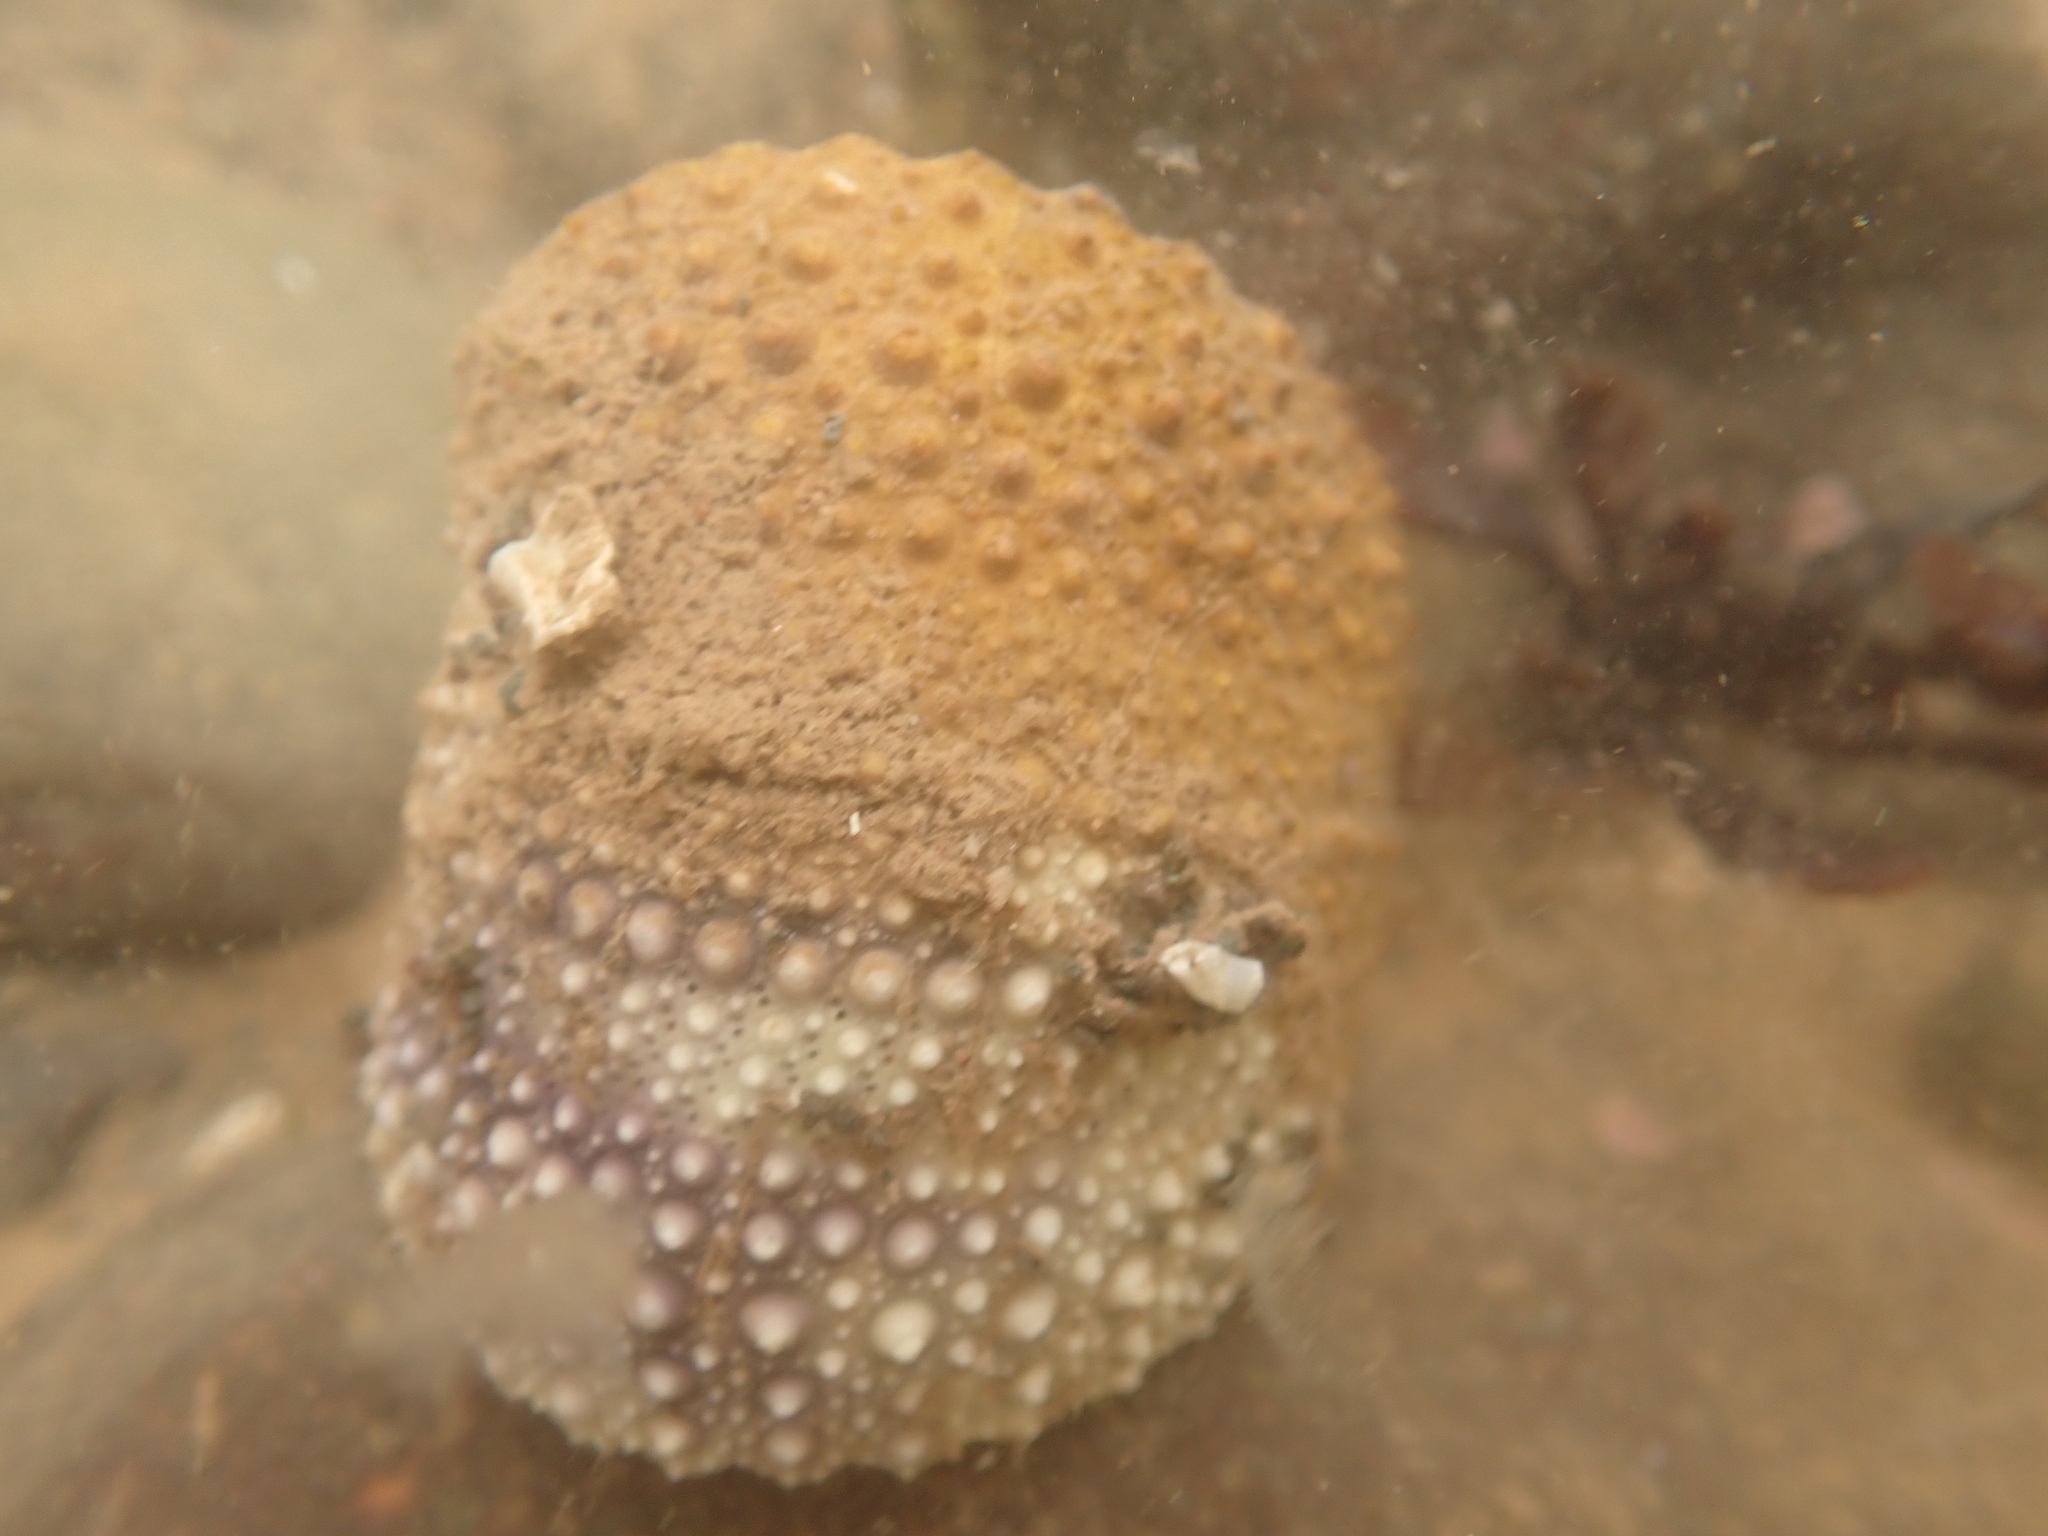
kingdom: Animalia
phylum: Echinodermata
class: Echinoidea
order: Camarodonta
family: Strongylocentrotidae
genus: Strongylocentrotus
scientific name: Strongylocentrotus droebachiensis
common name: Northern sea urchin
